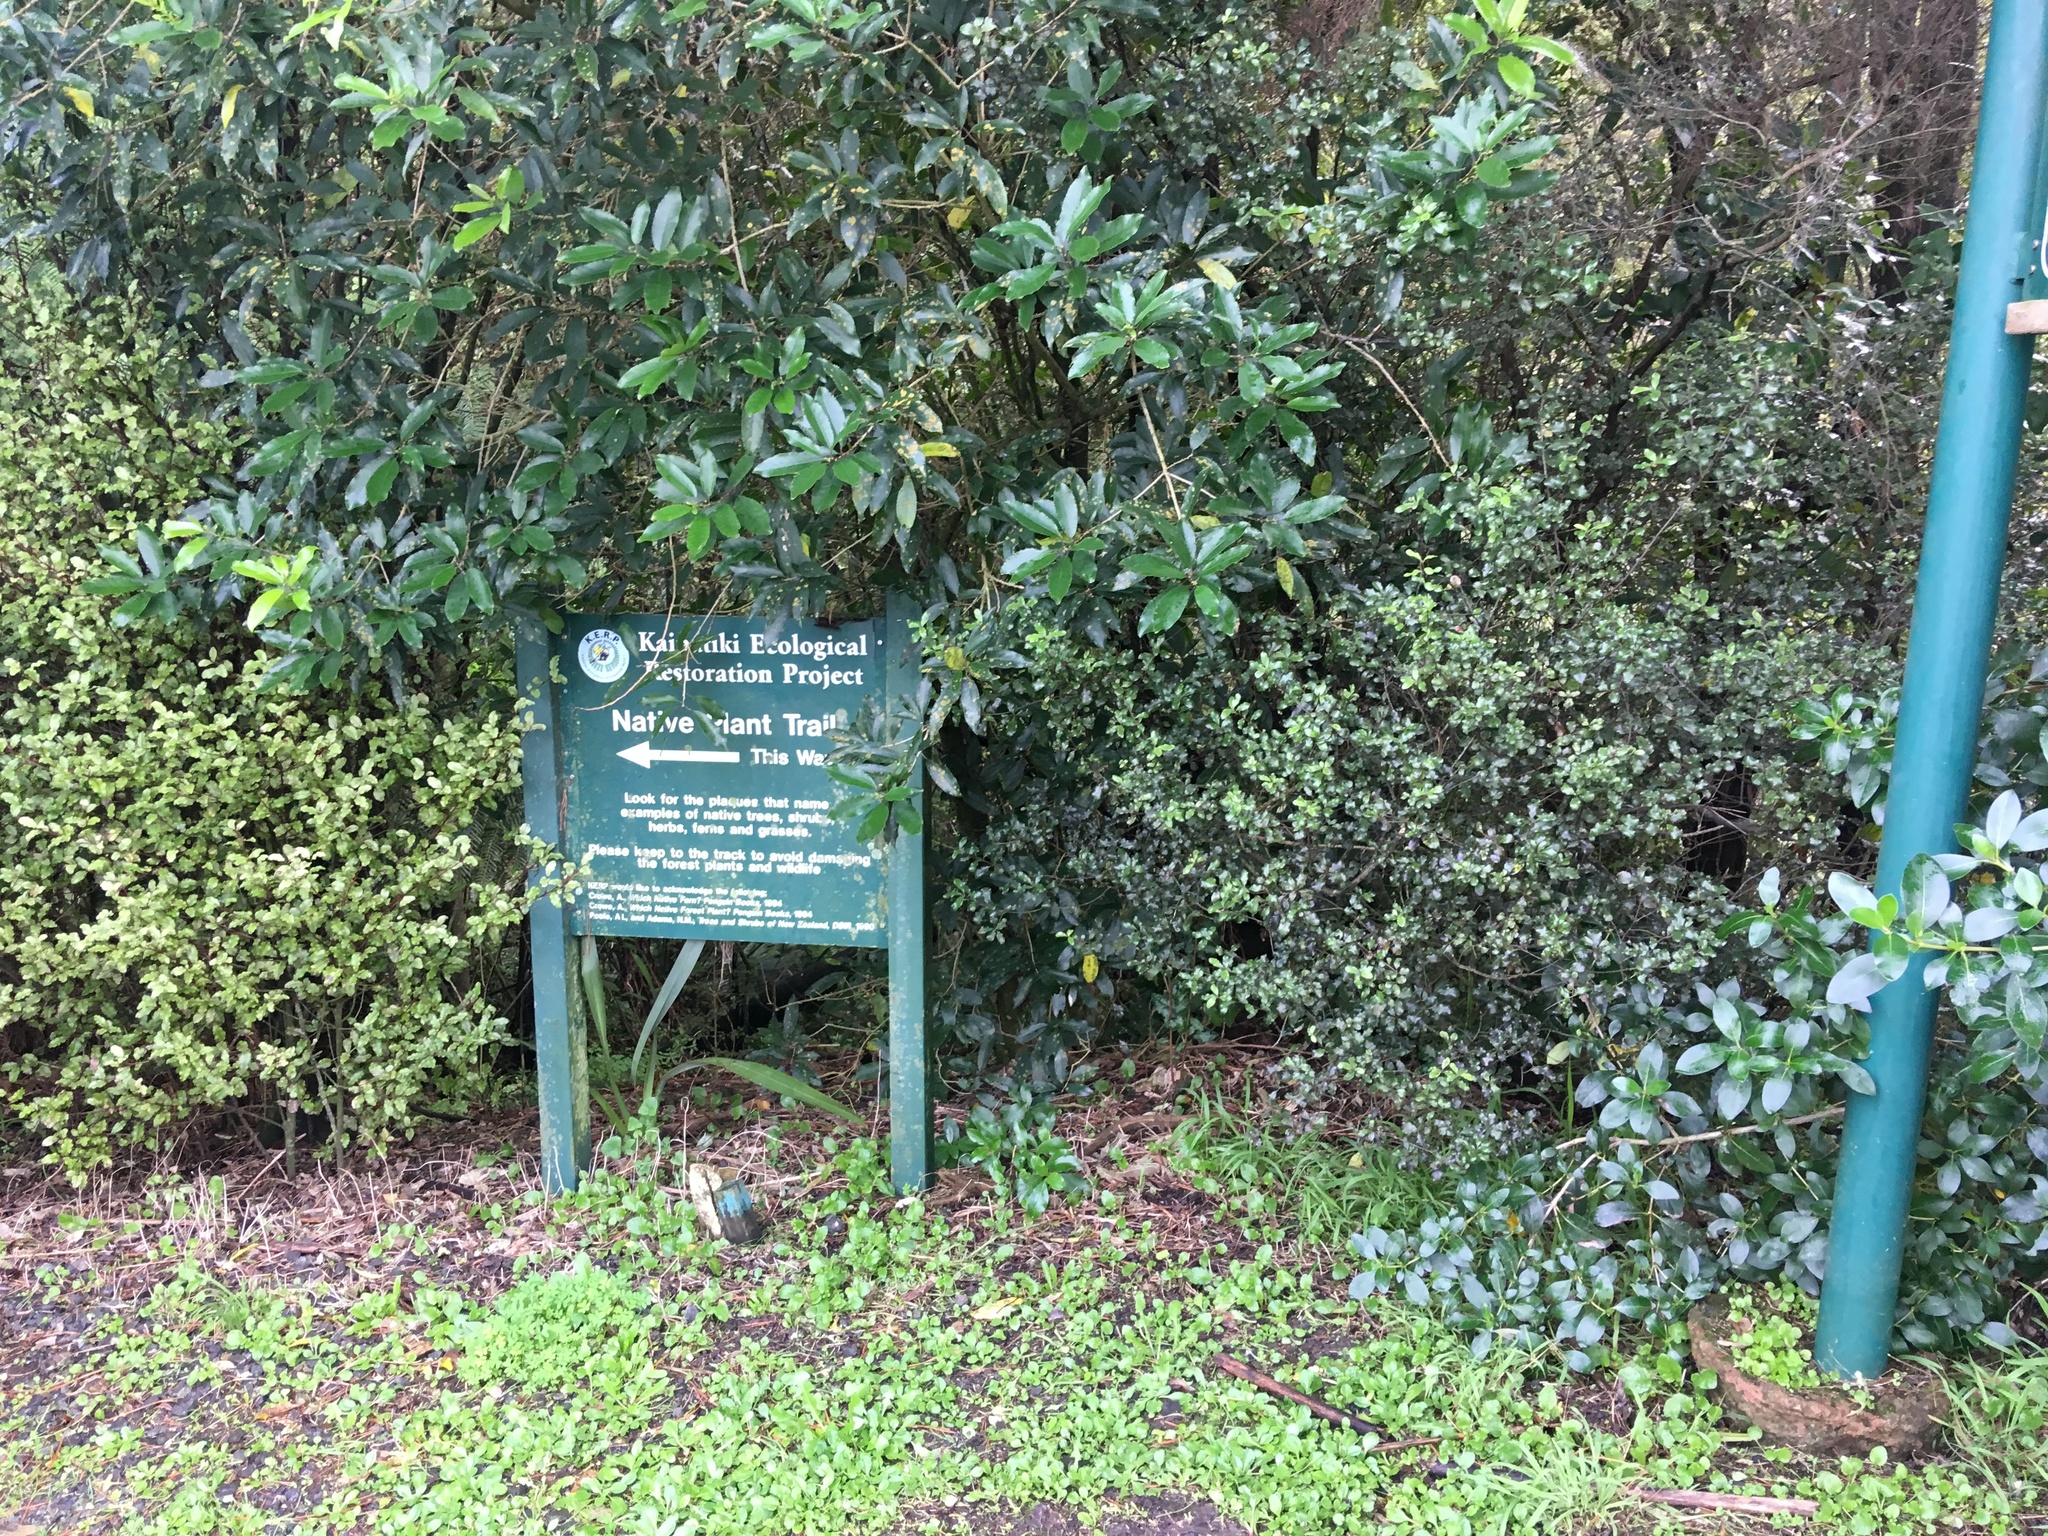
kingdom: Plantae
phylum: Tracheophyta
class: Magnoliopsida
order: Apiales
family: Pittosporaceae
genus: Pittosporum
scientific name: Pittosporum tenuifolium
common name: Kohuhu
